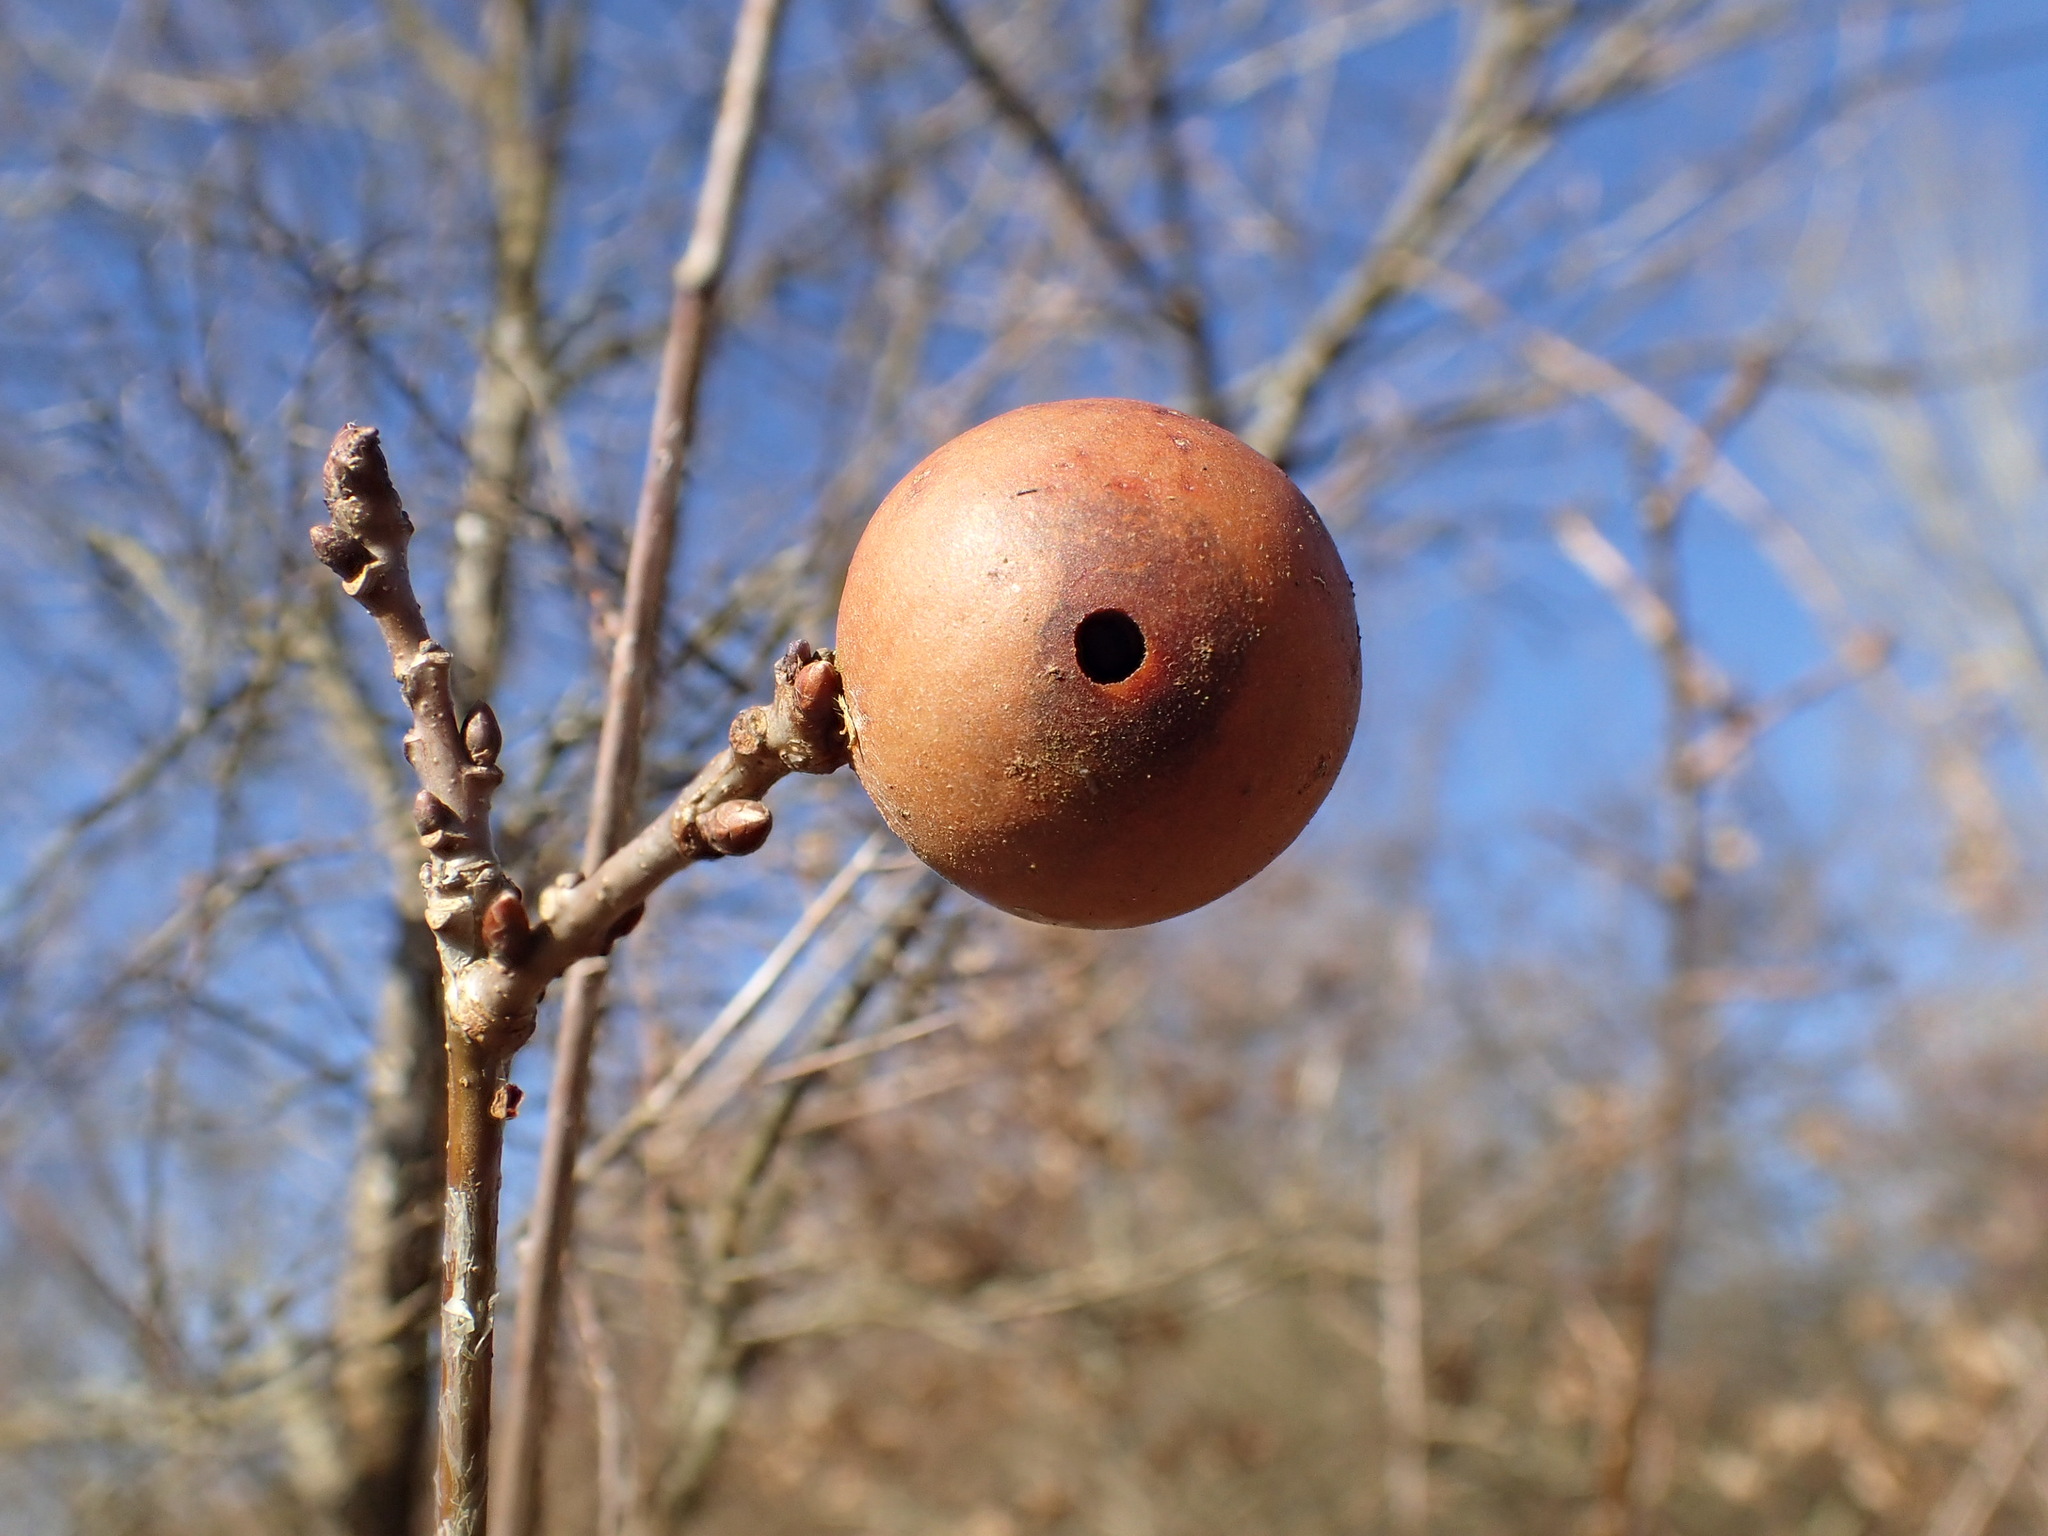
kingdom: Animalia
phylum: Arthropoda
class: Insecta
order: Hymenoptera
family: Cynipidae
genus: Andricus
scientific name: Andricus kollari
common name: Marble gall
